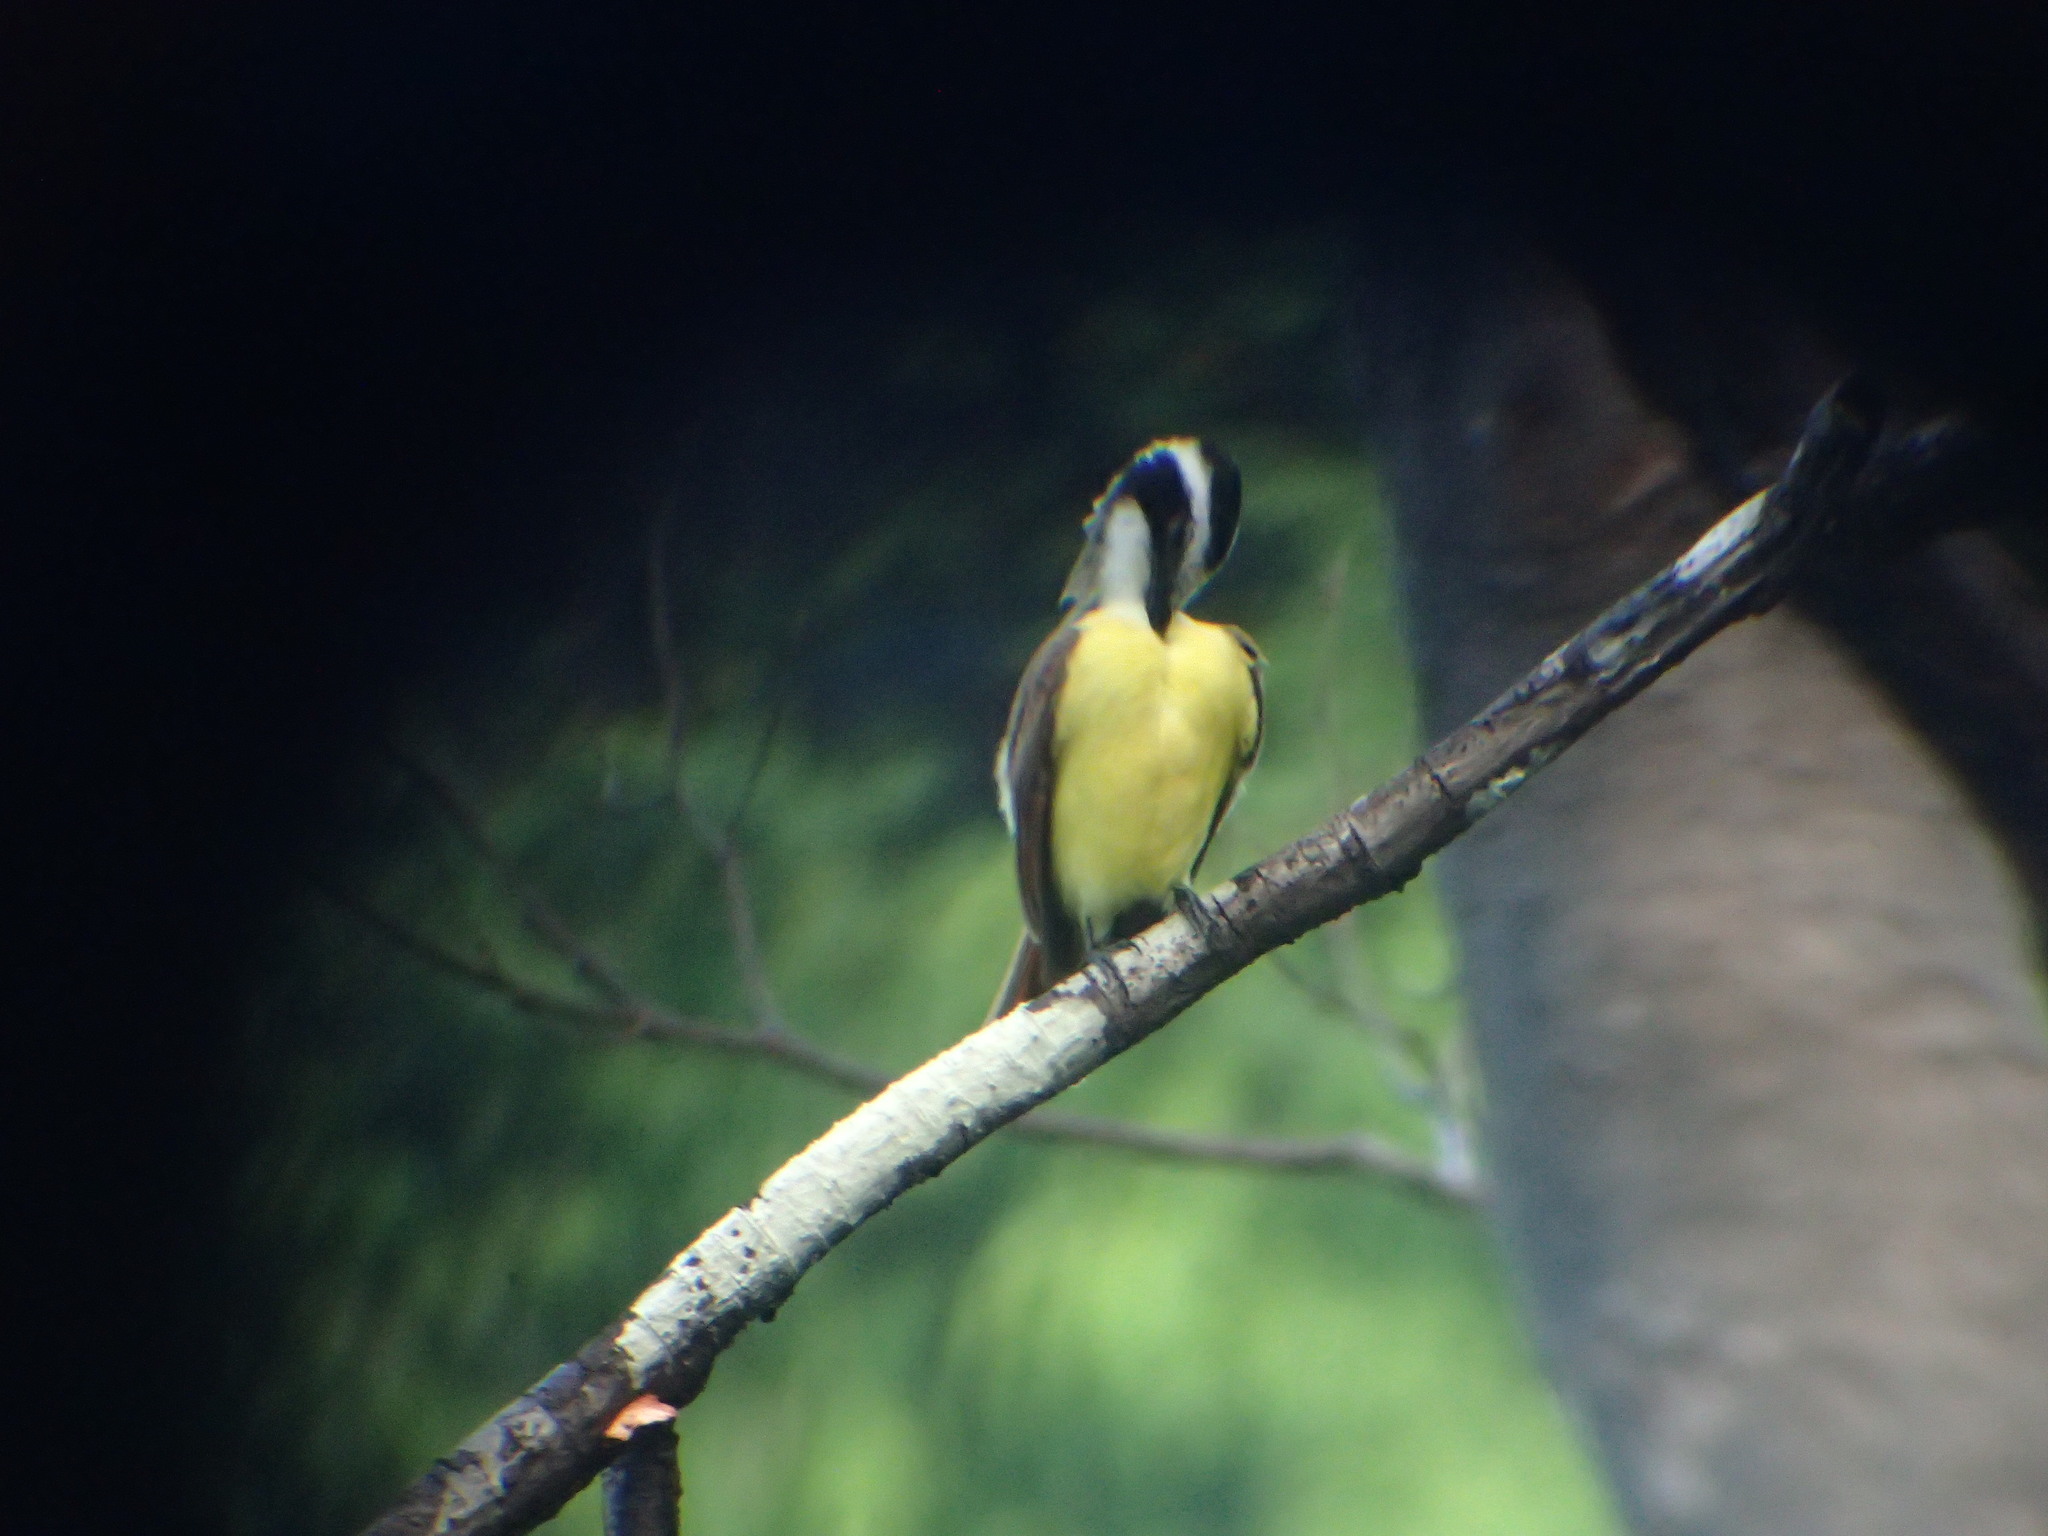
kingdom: Animalia
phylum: Chordata
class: Aves
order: Passeriformes
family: Tyrannidae
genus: Pitangus
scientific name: Pitangus sulphuratus
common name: Great kiskadee
